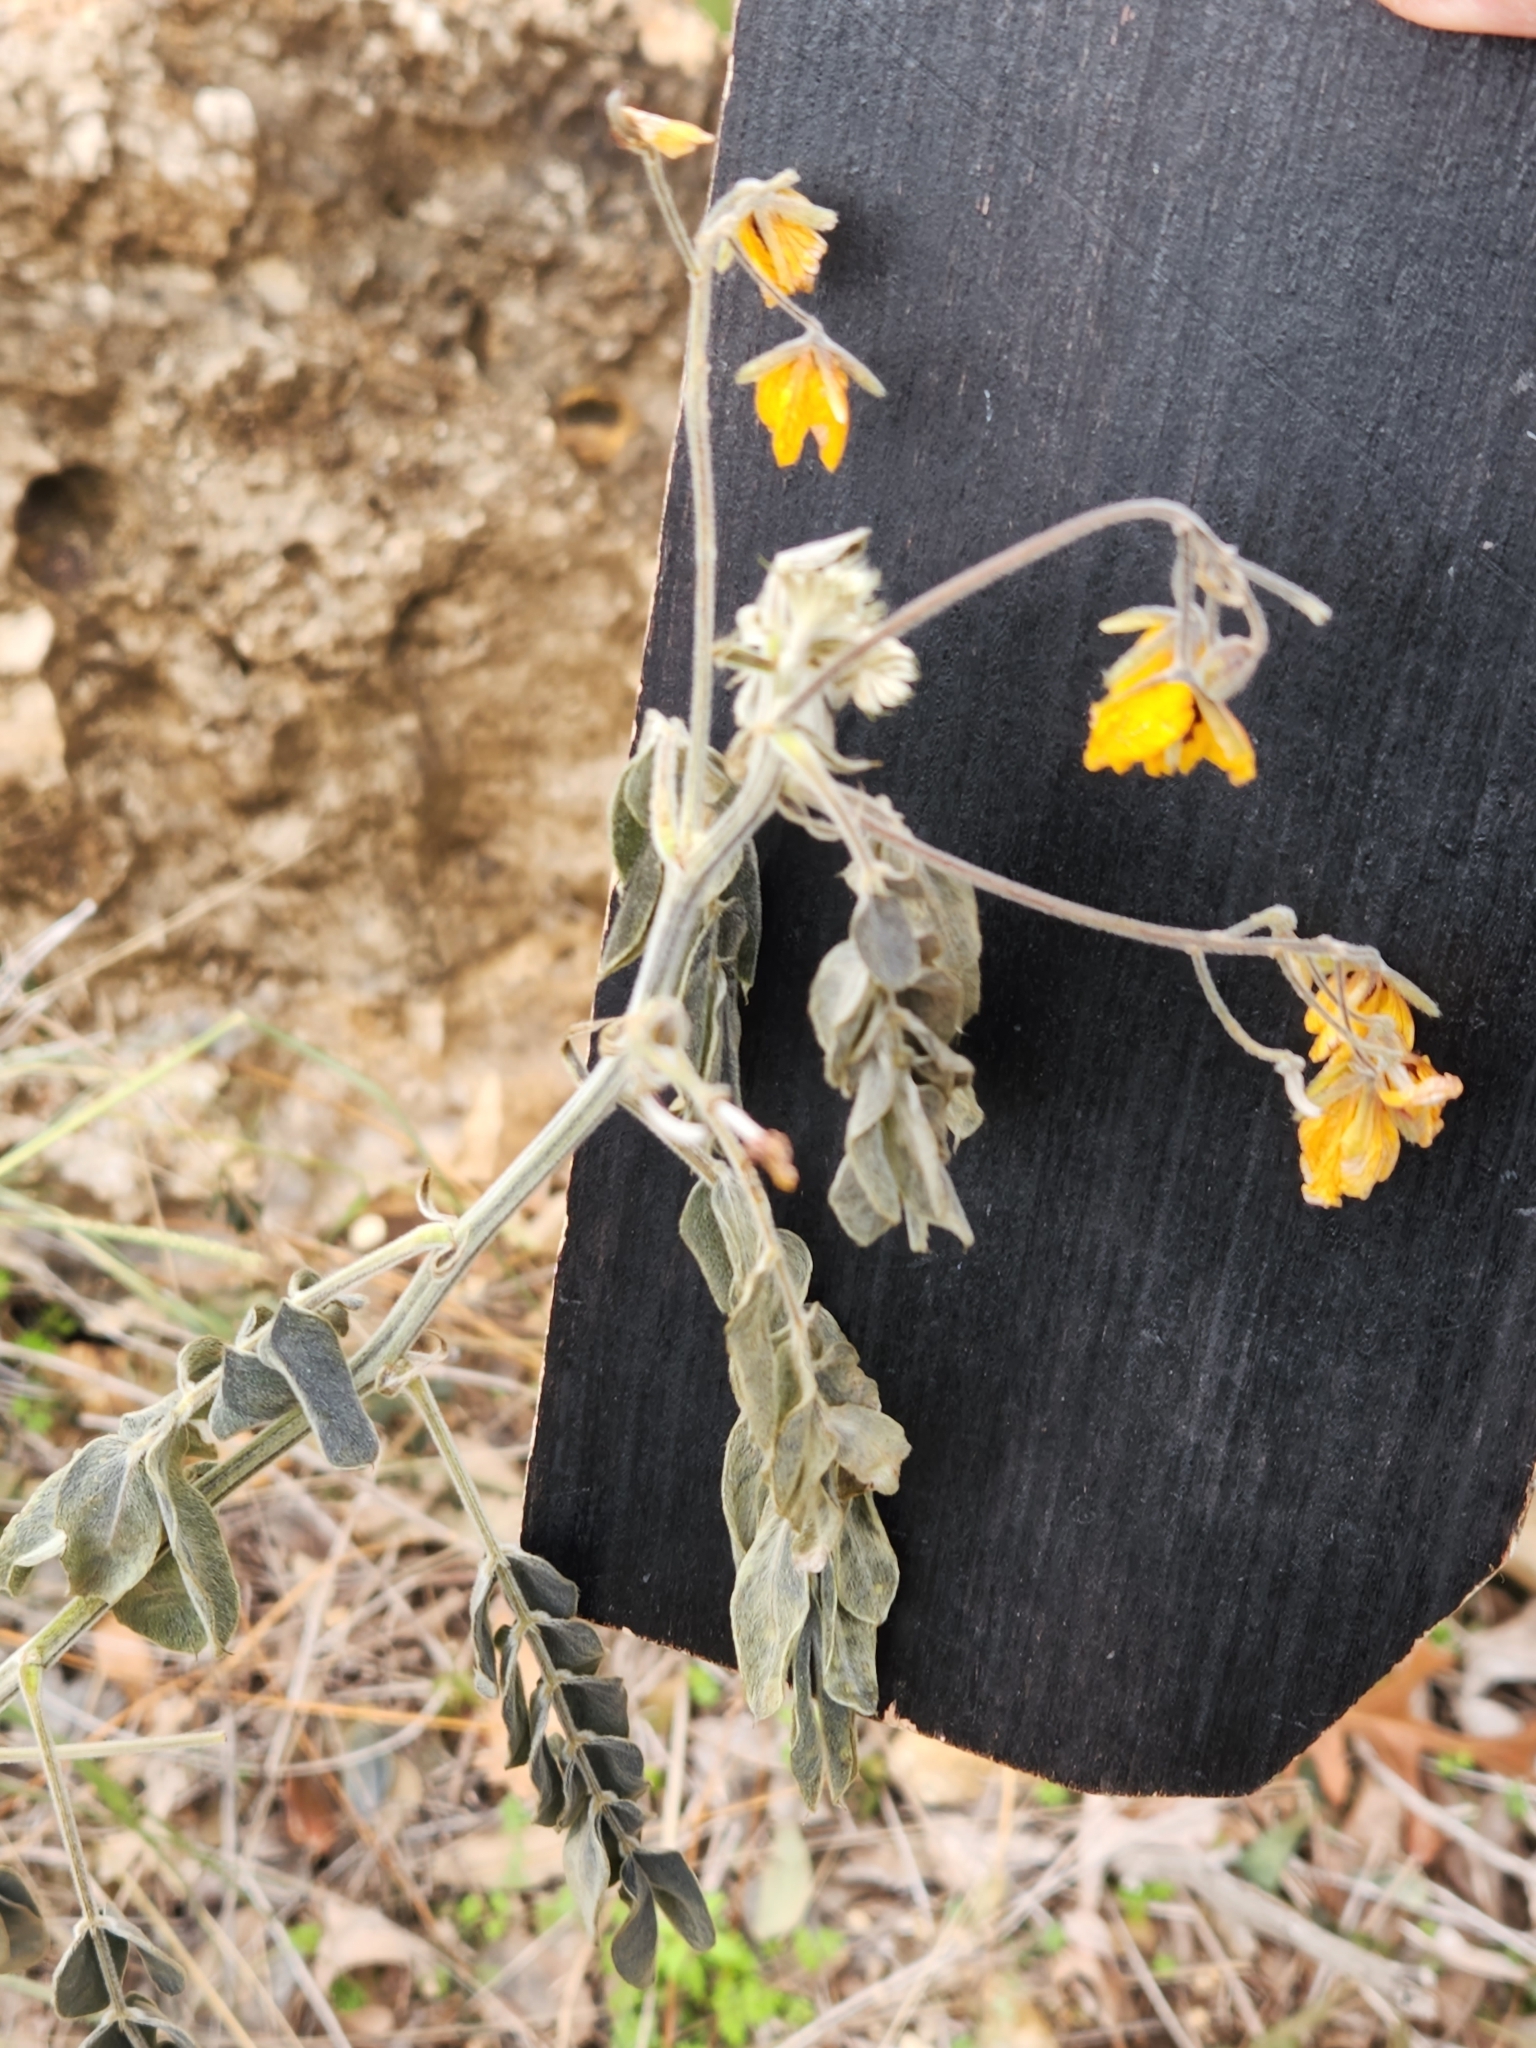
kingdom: Plantae
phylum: Tracheophyta
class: Magnoliopsida
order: Fabales
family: Fabaceae
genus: Senna
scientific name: Senna lindheimeriana
